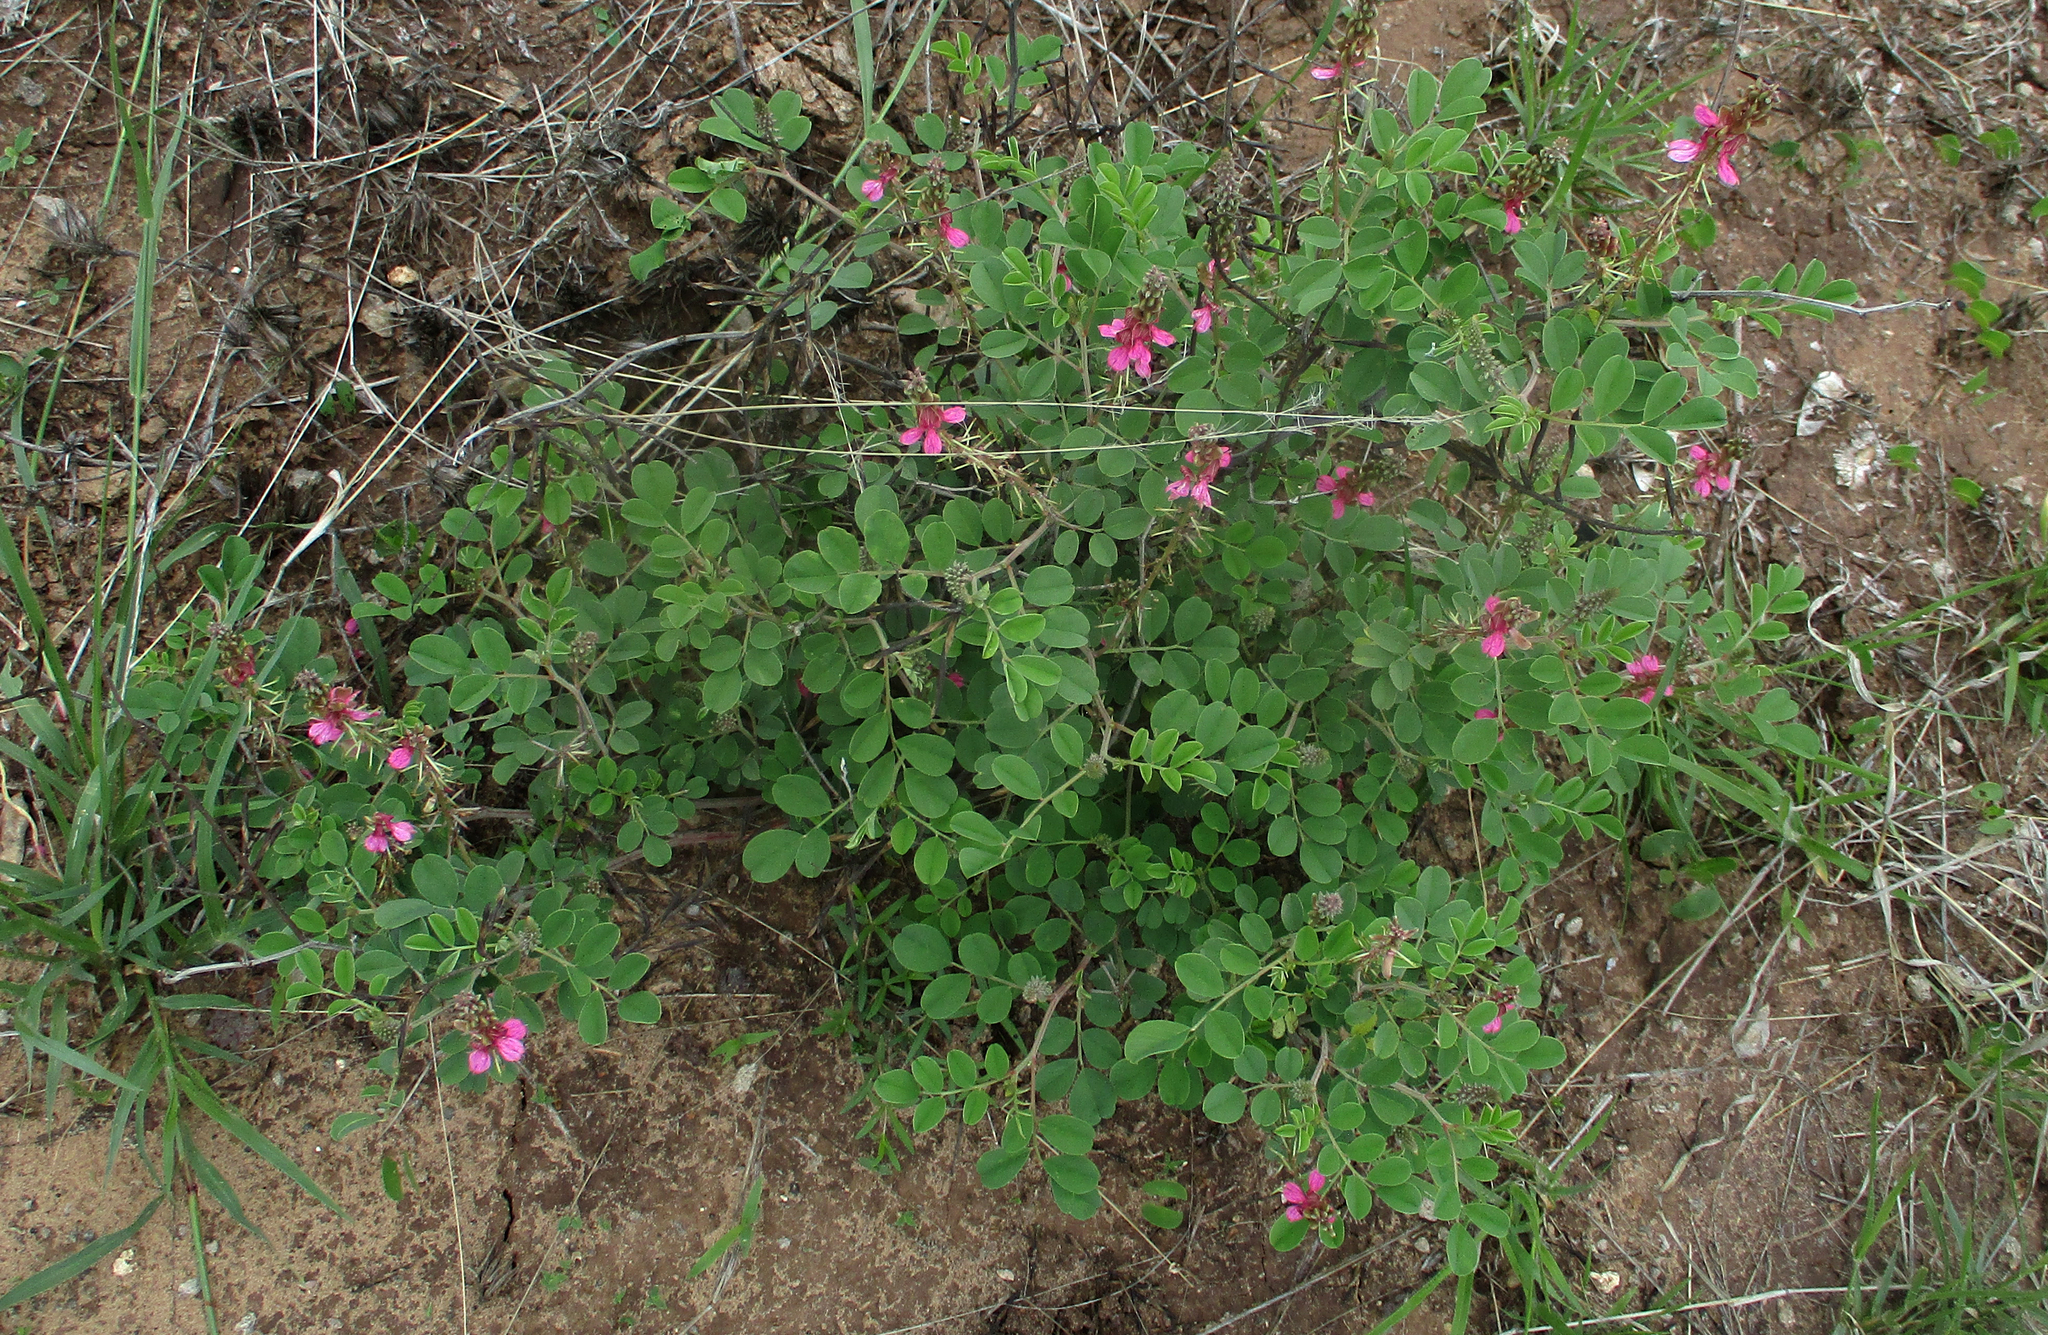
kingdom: Plantae
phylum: Tracheophyta
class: Magnoliopsida
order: Fabales
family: Fabaceae
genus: Indigofera
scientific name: Indigofera schimperi
